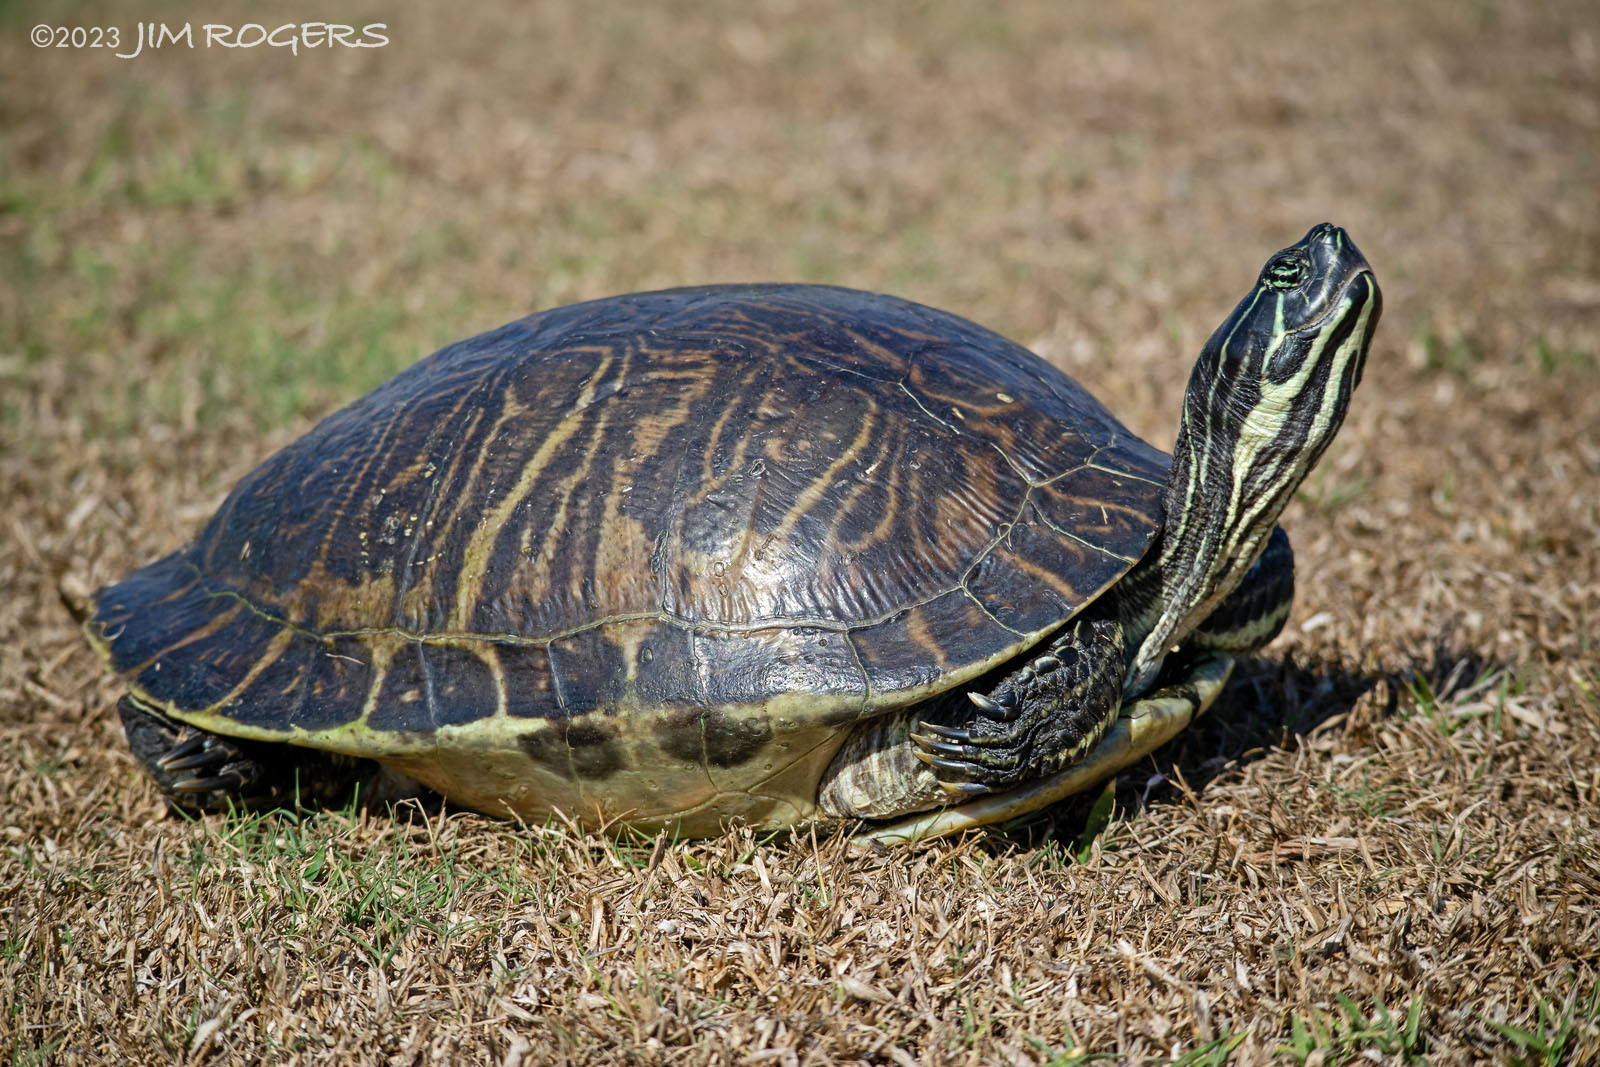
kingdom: Animalia
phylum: Chordata
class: Testudines
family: Emydidae
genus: Pseudemys
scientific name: Pseudemys peninsularis
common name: Peninsula cooter
